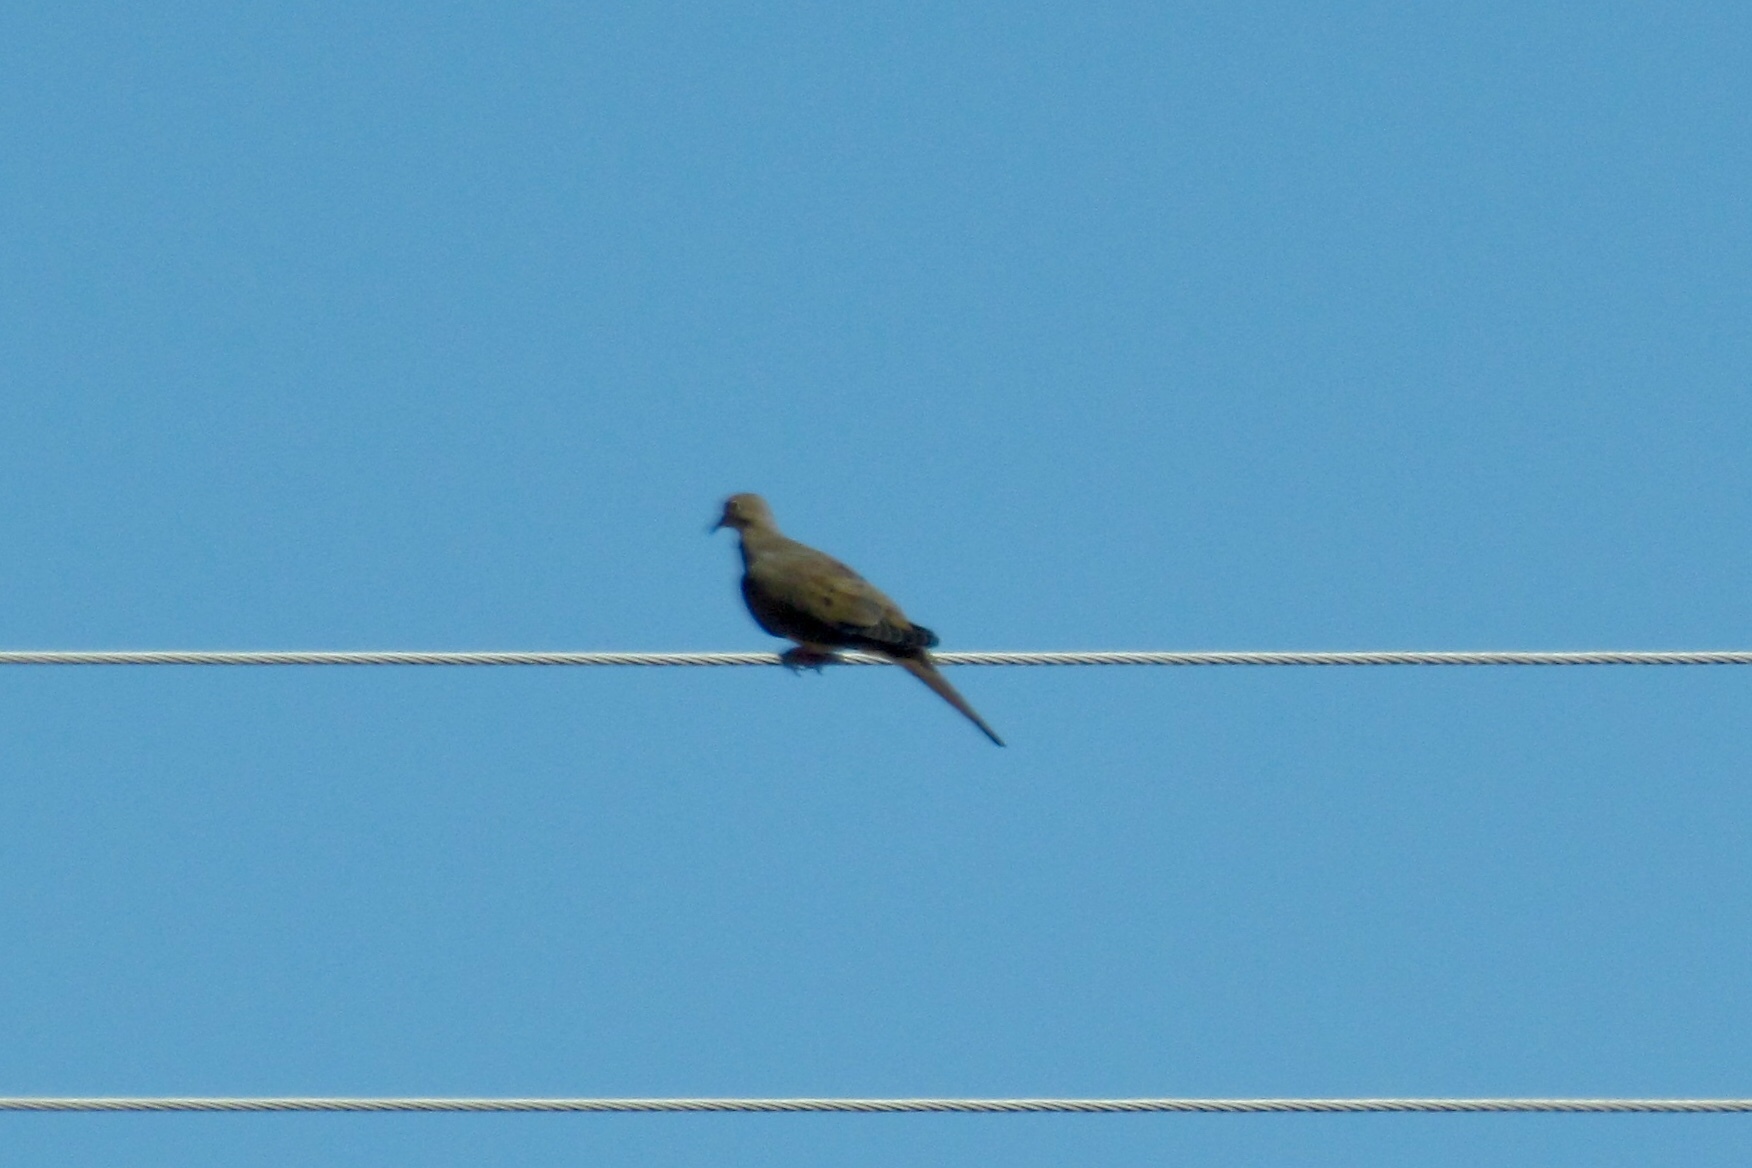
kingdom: Animalia
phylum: Chordata
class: Aves
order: Columbiformes
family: Columbidae
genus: Zenaida
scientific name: Zenaida macroura
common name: Mourning dove
